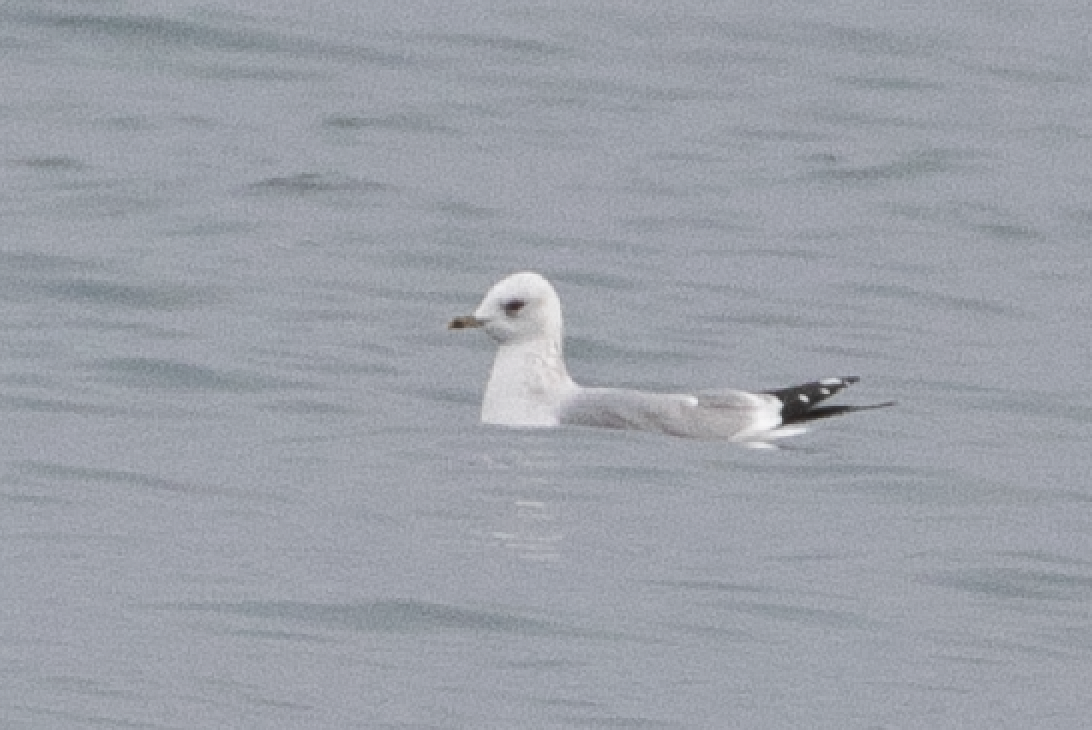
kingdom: Animalia
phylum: Chordata
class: Aves
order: Charadriiformes
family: Laridae
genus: Larus
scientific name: Larus canus
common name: Mew gull
